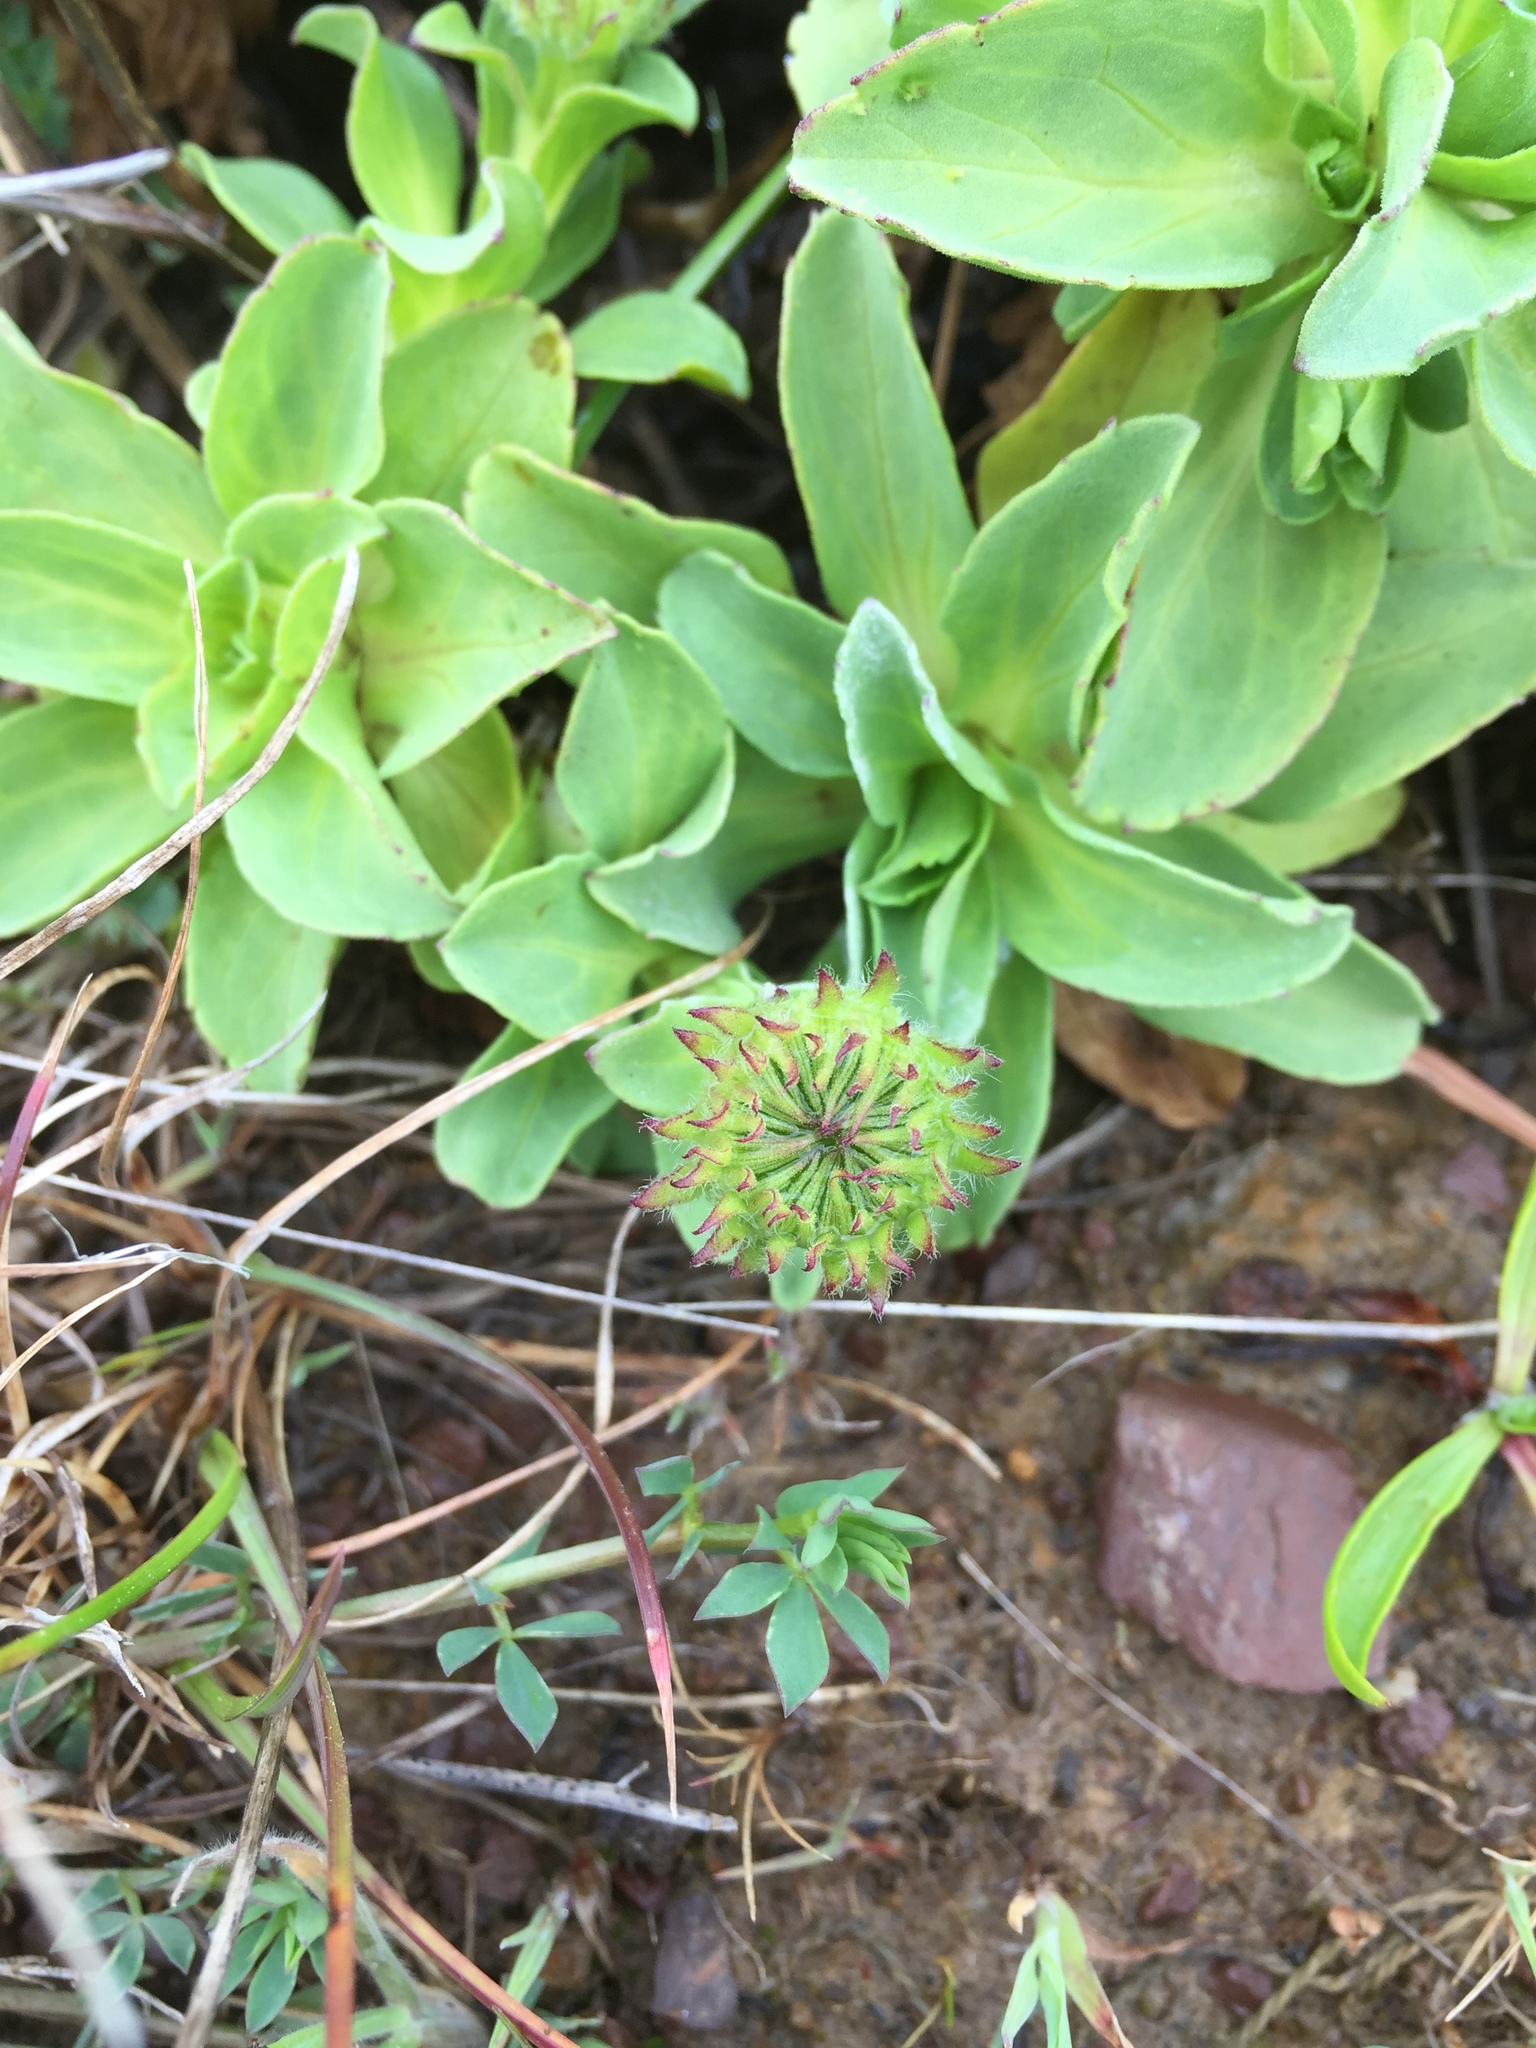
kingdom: Plantae
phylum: Tracheophyta
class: Magnoliopsida
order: Asterales
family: Asteraceae
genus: Erigeron
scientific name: Erigeron glaucus
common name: Seaside daisy
